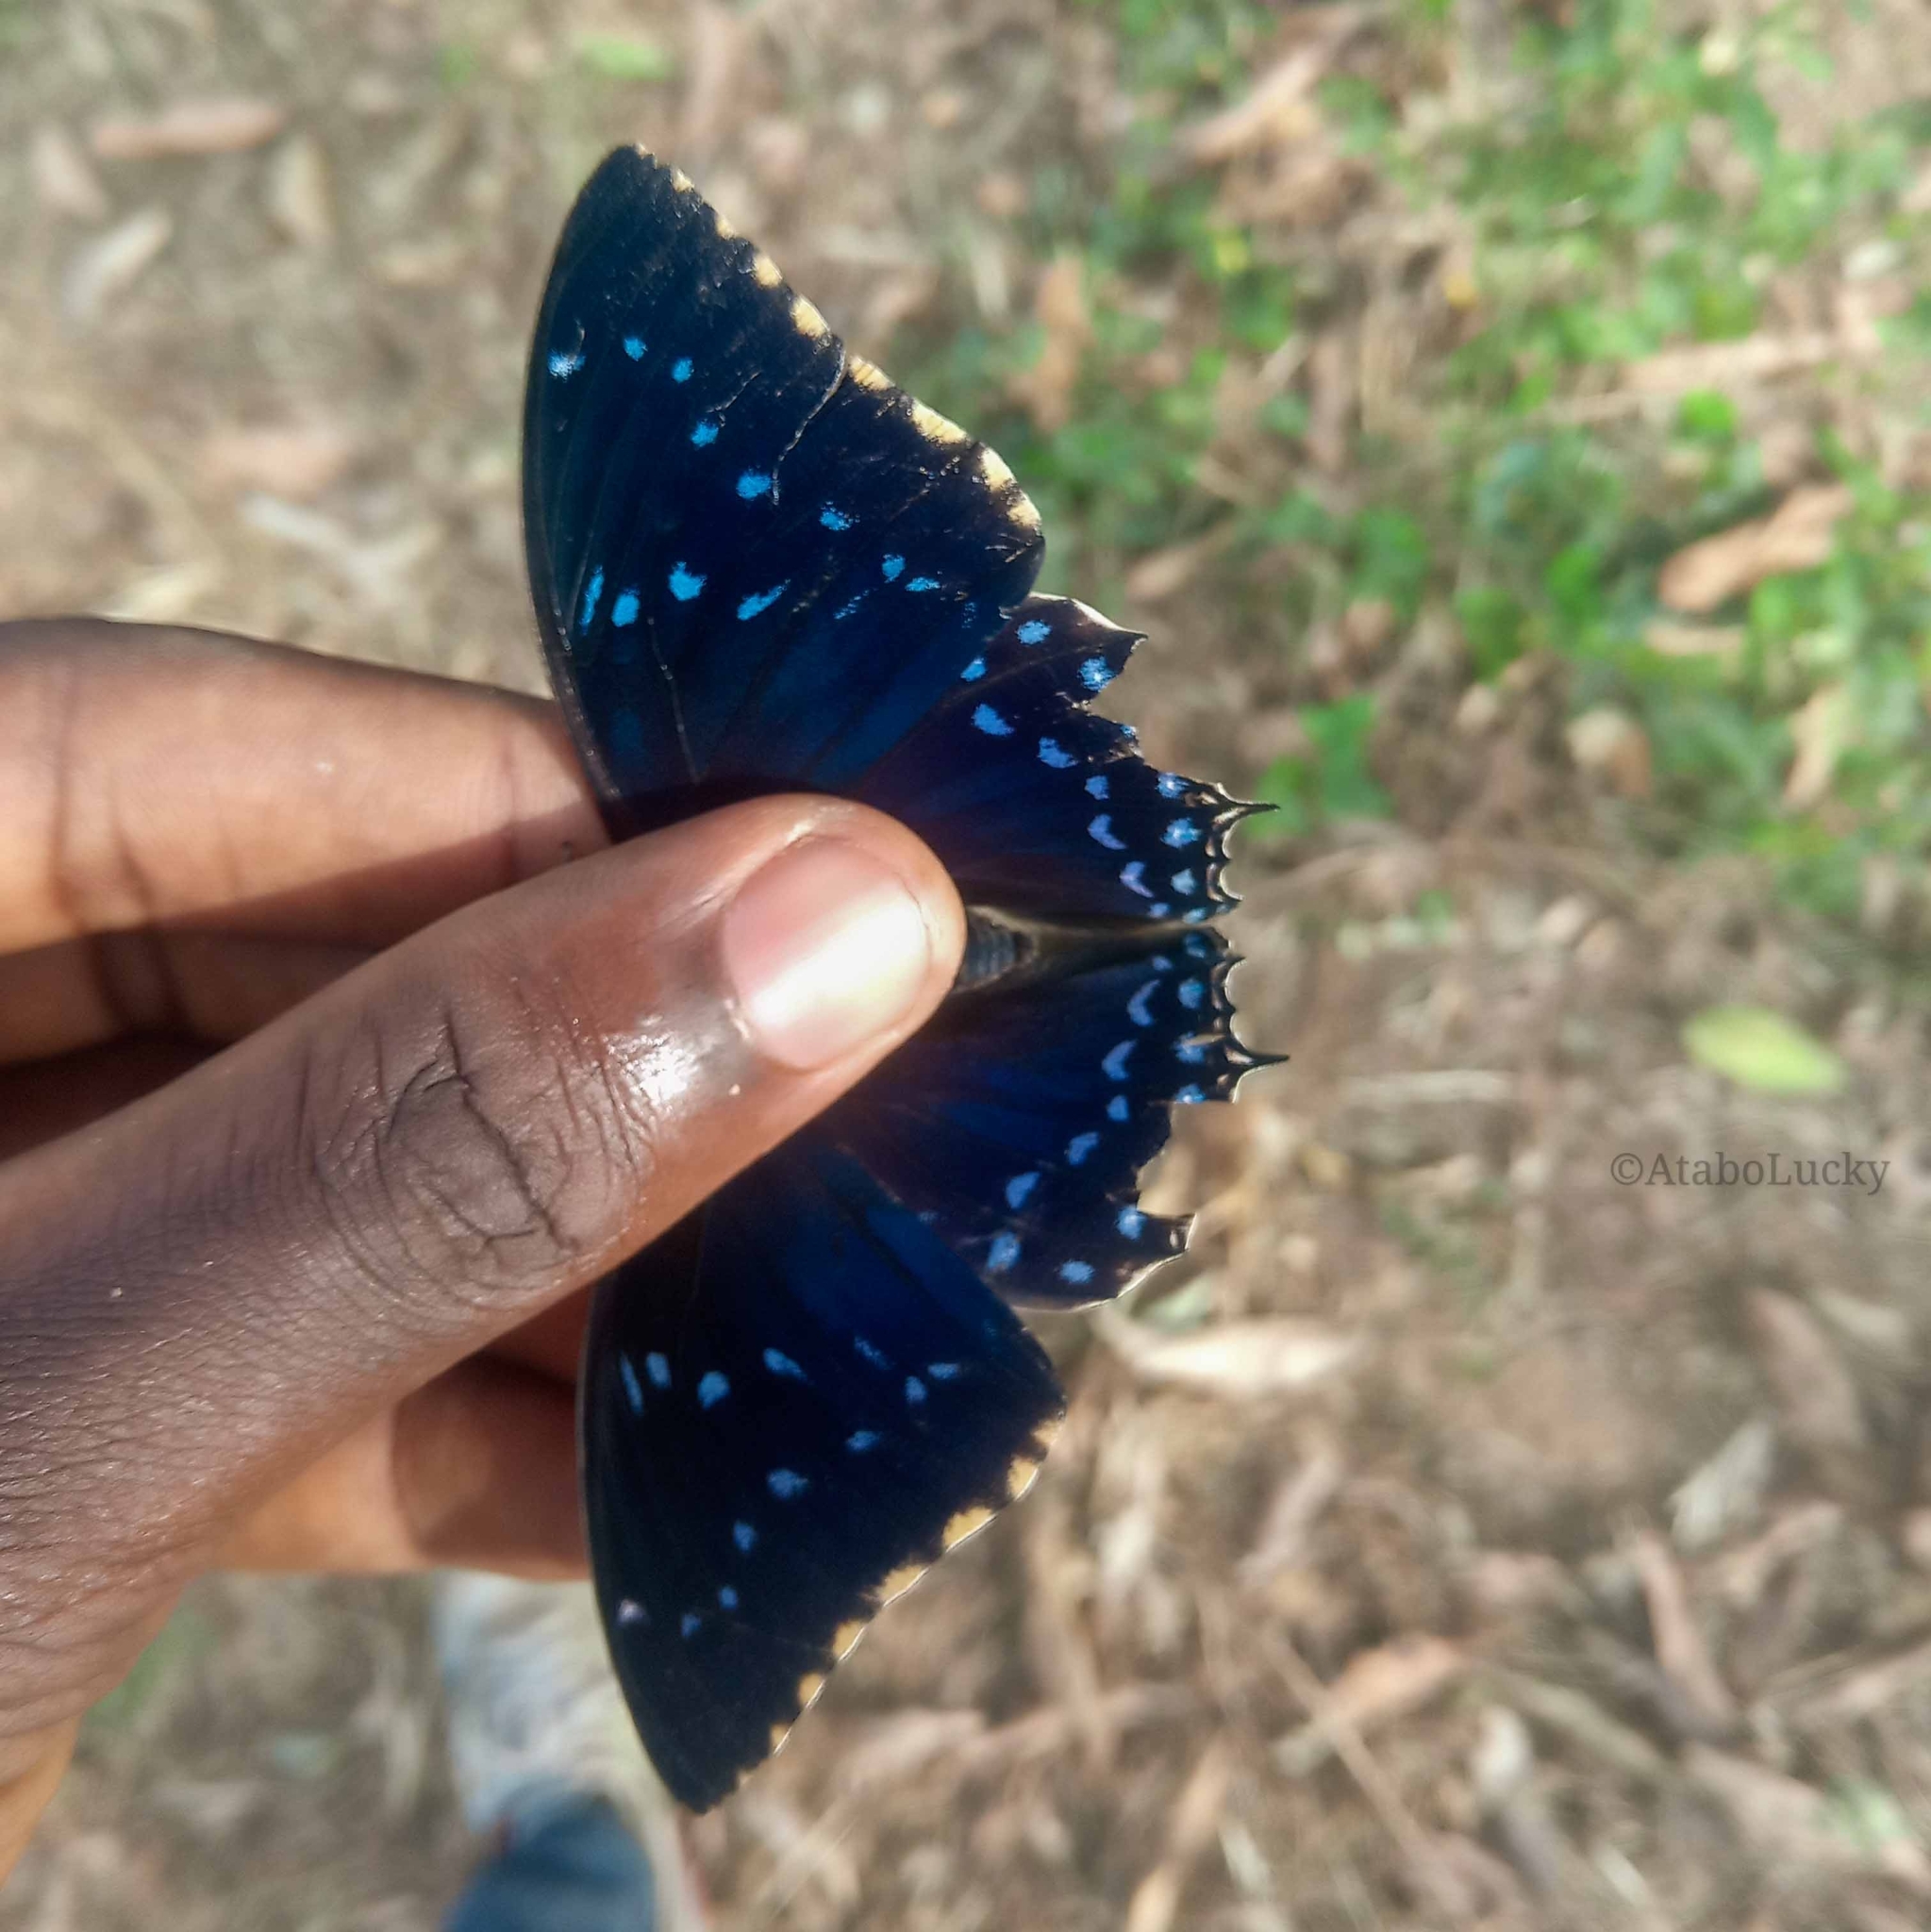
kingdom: Animalia
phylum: Arthropoda
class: Insecta
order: Lepidoptera
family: Nymphalidae
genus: Charaxes
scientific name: Charaxes tiridates
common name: Common blue charaxes
